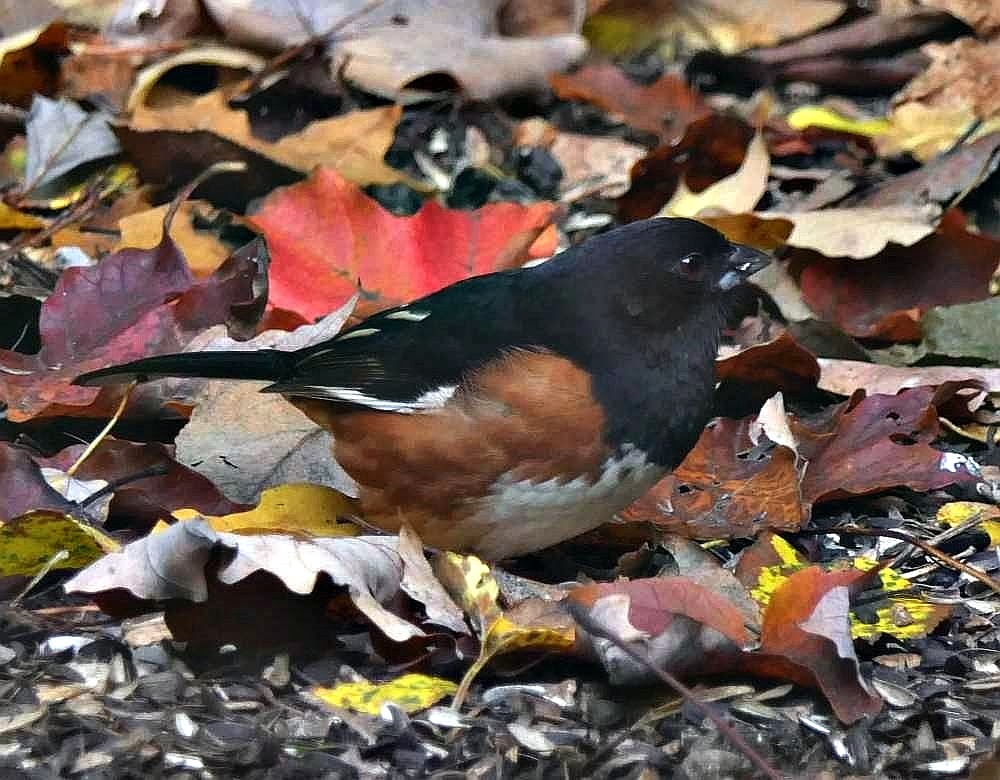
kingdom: Animalia
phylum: Chordata
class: Aves
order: Passeriformes
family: Passerellidae
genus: Pipilo
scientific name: Pipilo erythrophthalmus
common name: Eastern towhee
